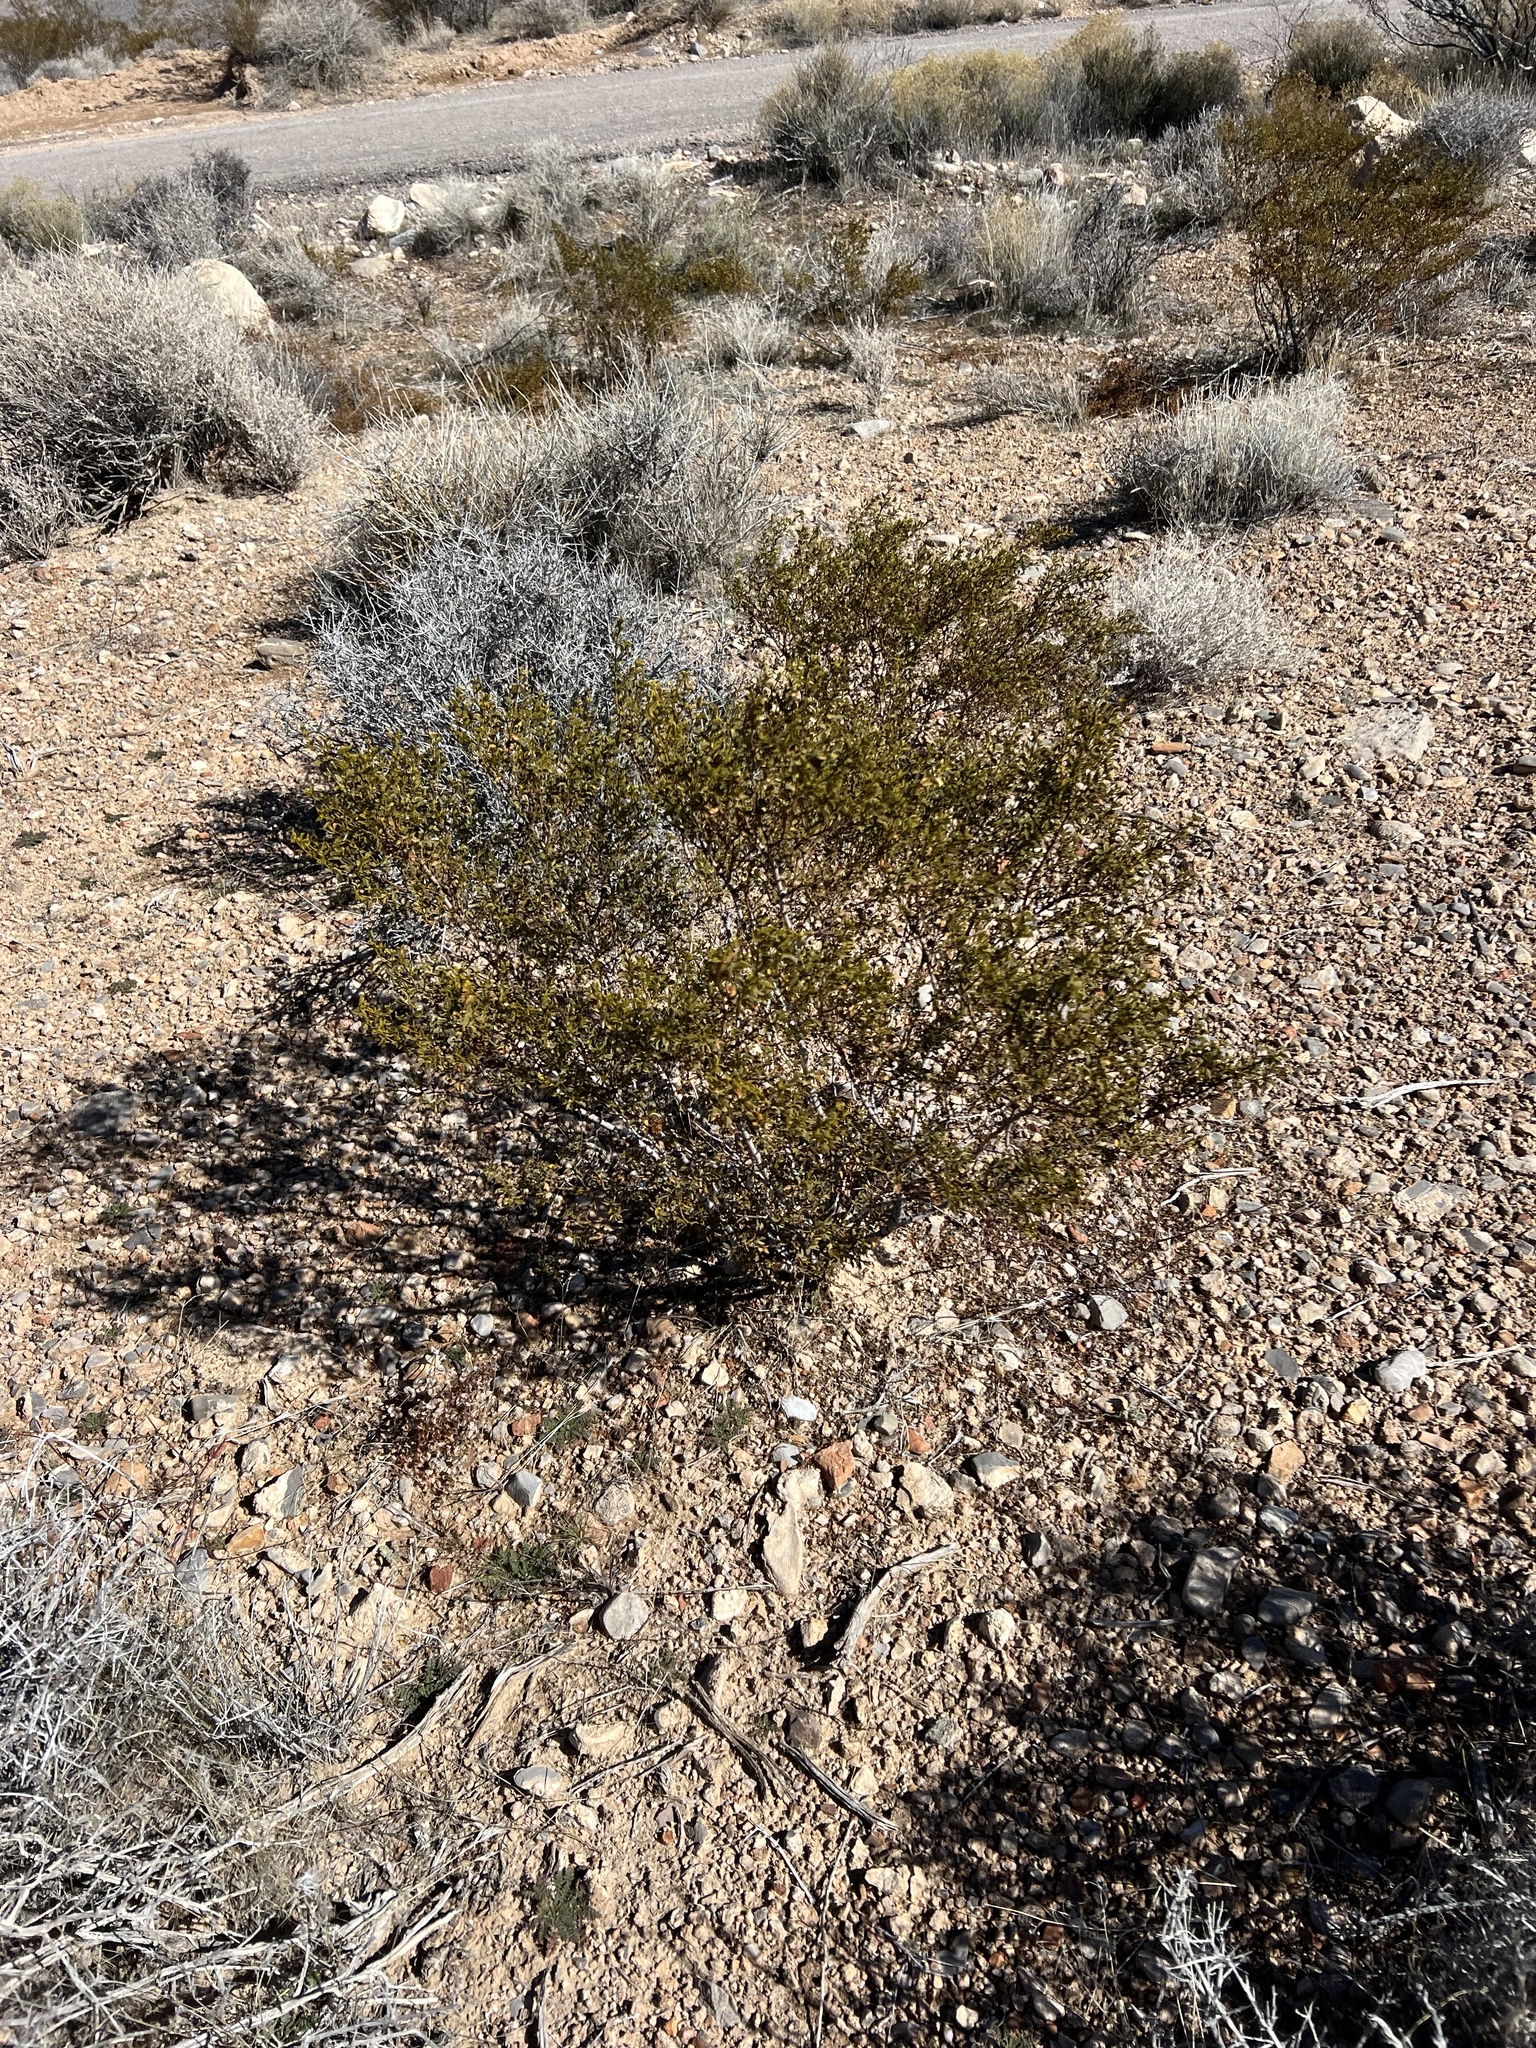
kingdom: Plantae
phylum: Tracheophyta
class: Magnoliopsida
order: Zygophyllales
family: Zygophyllaceae
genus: Larrea
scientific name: Larrea tridentata
